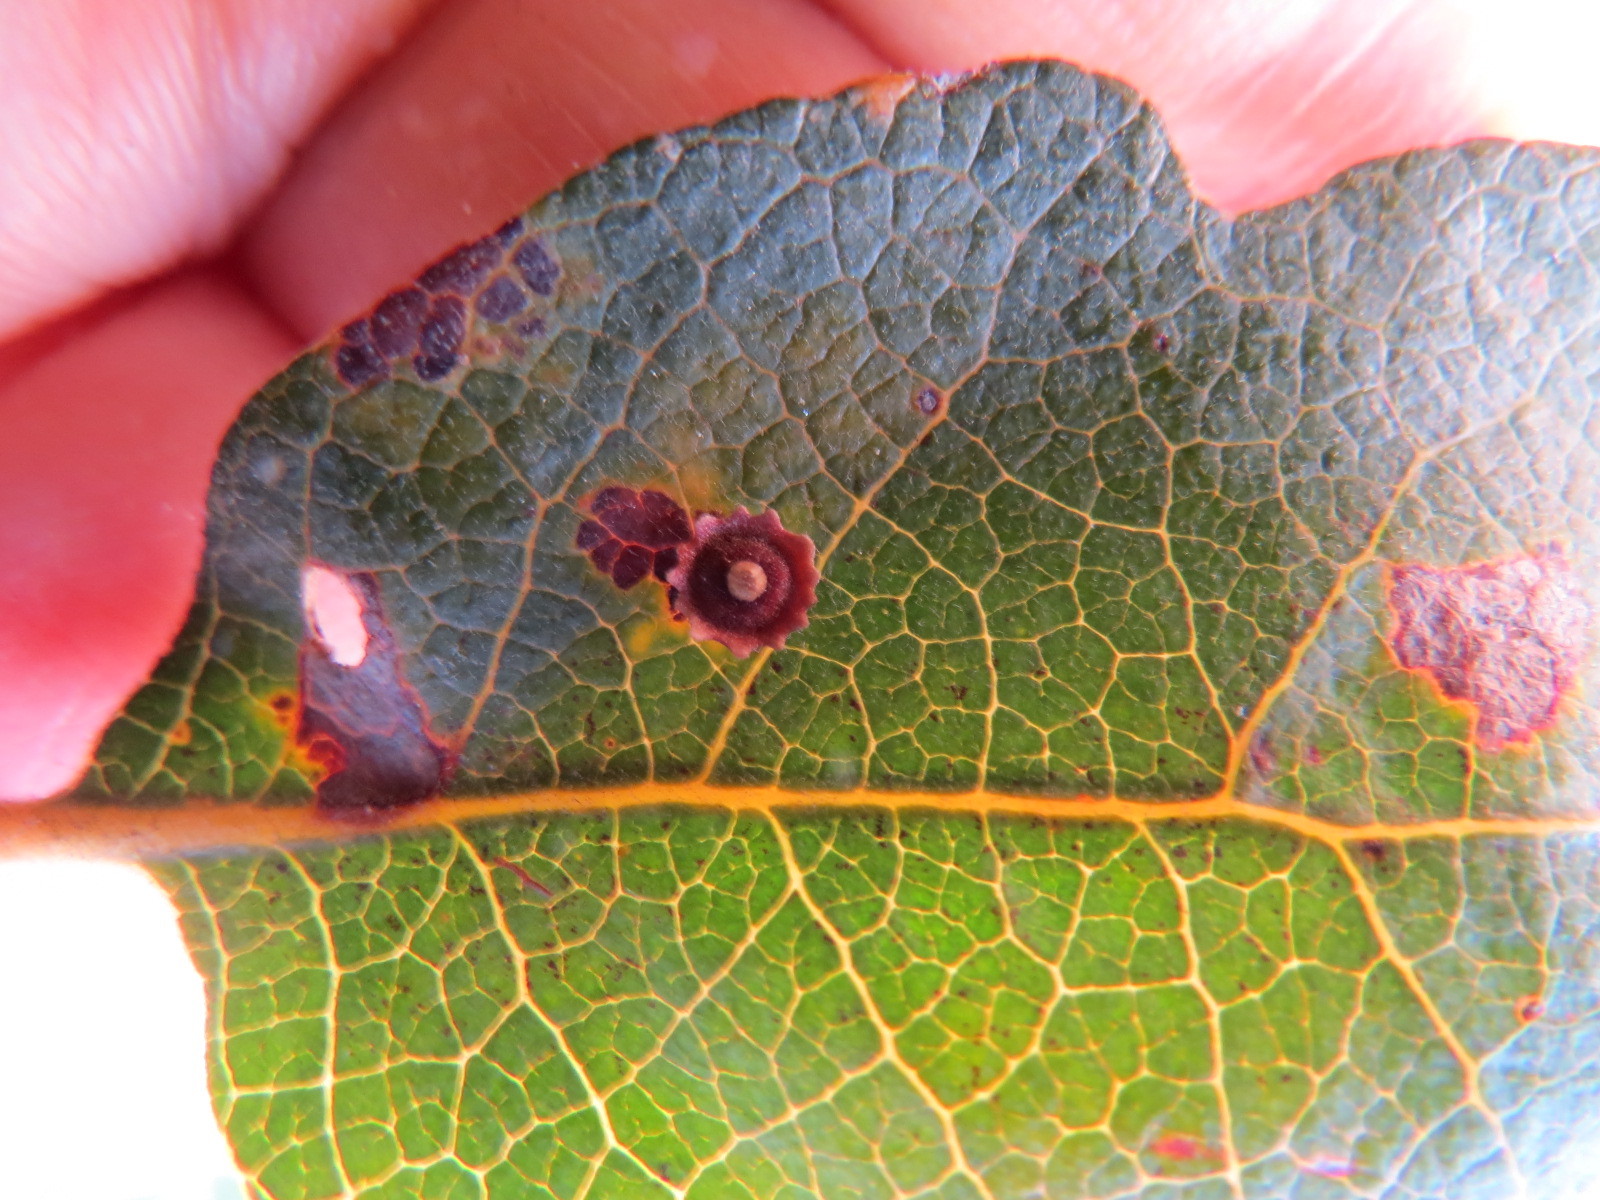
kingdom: Animalia
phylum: Arthropoda
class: Insecta
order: Hymenoptera
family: Cynipidae
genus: Andricus
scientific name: Andricus
